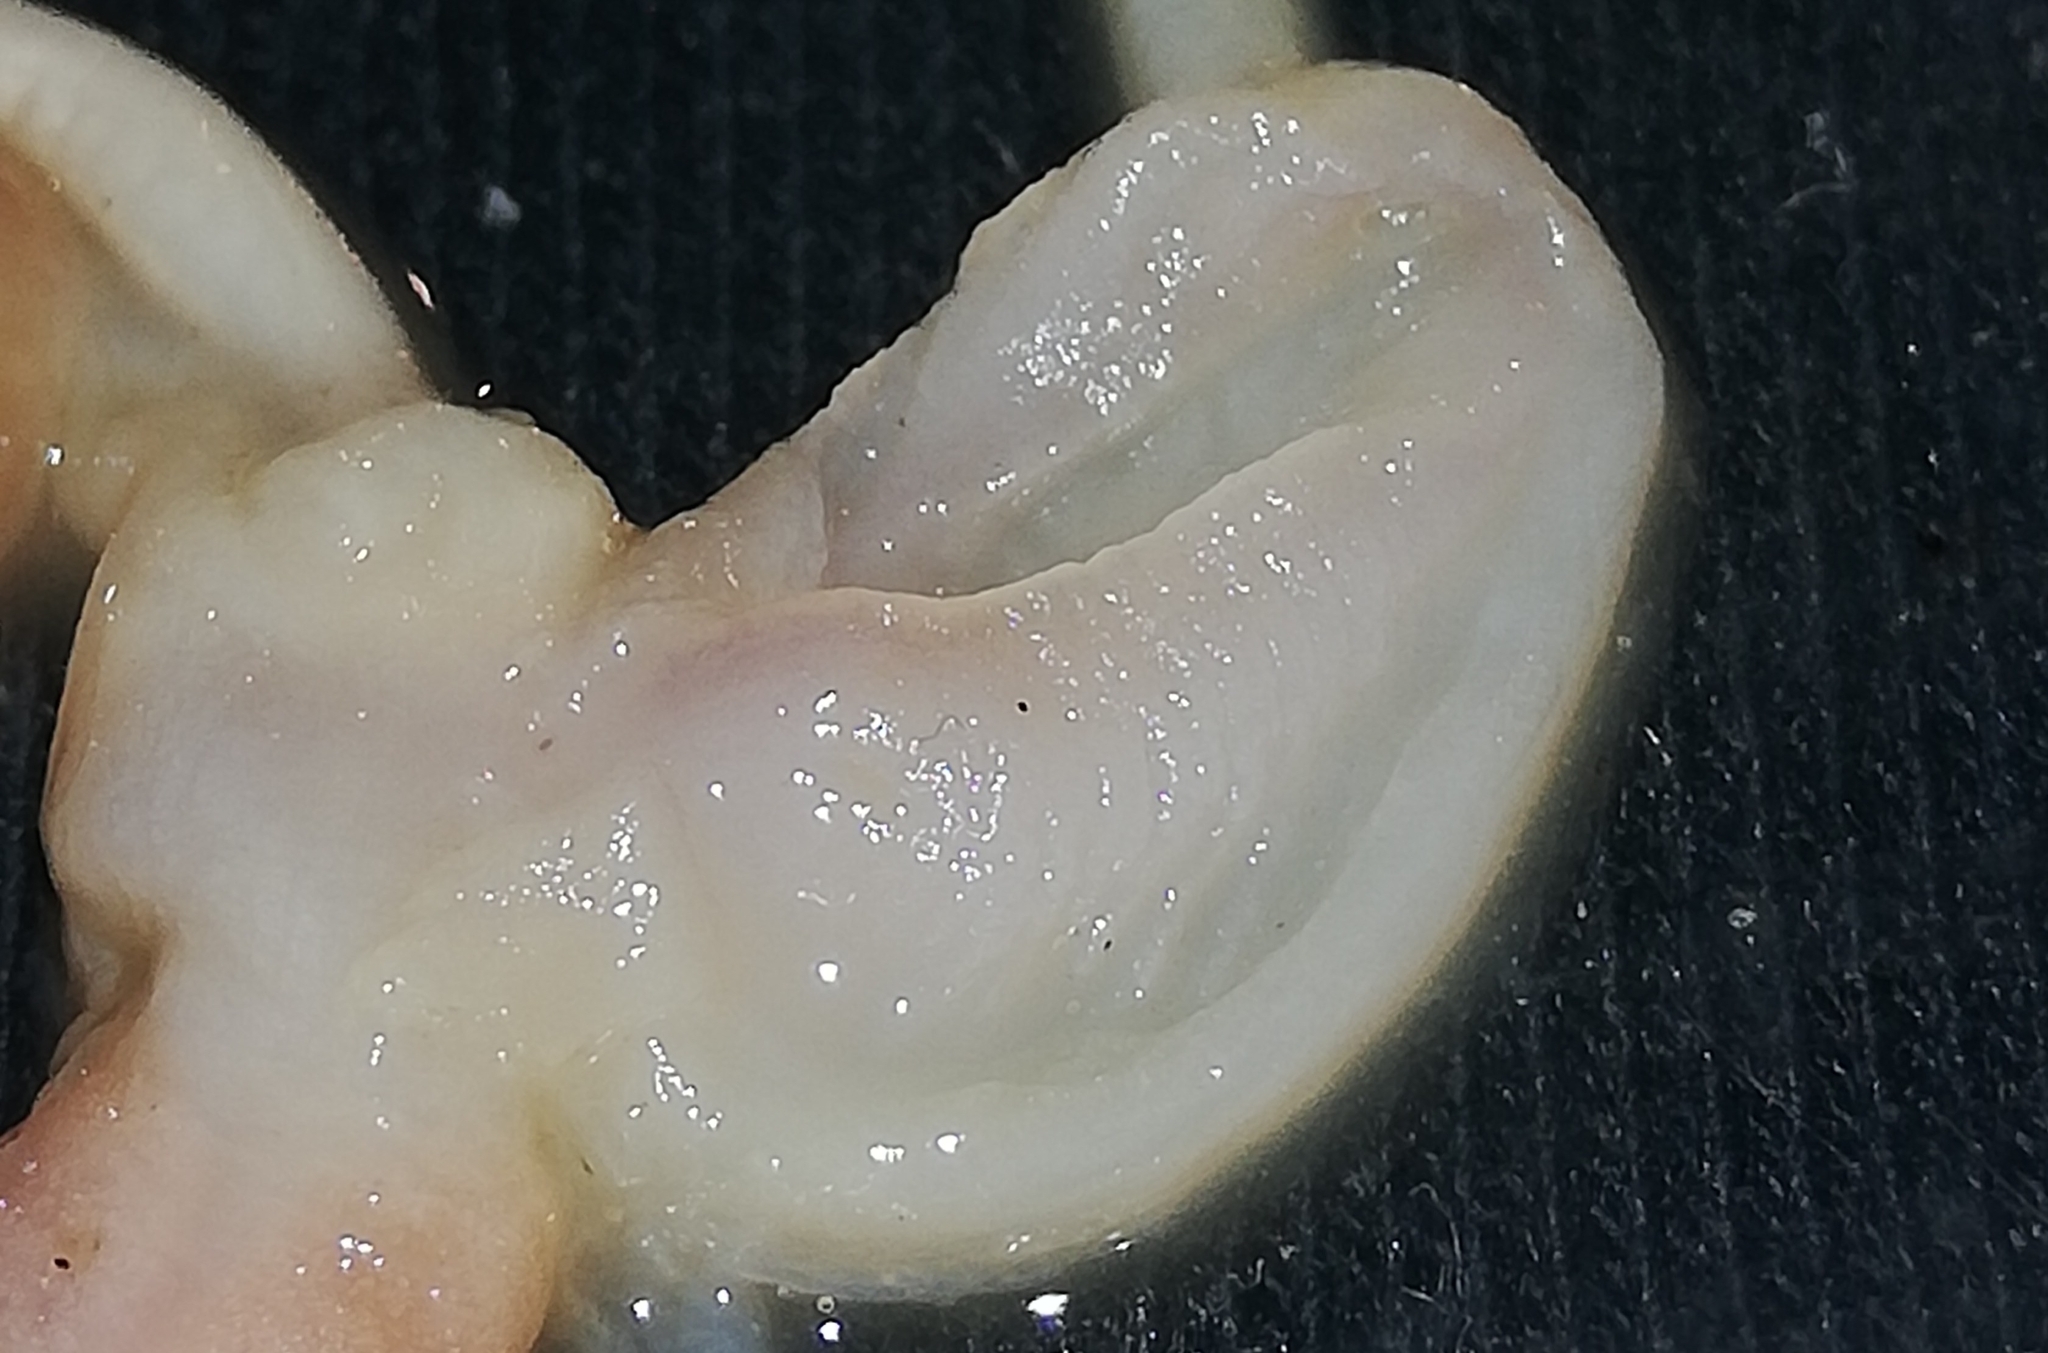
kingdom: Animalia
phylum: Mollusca
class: Gastropoda
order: Stylommatophora
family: Arionidae
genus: Arion
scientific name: Arion vulgaris
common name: Lusitanian slug
